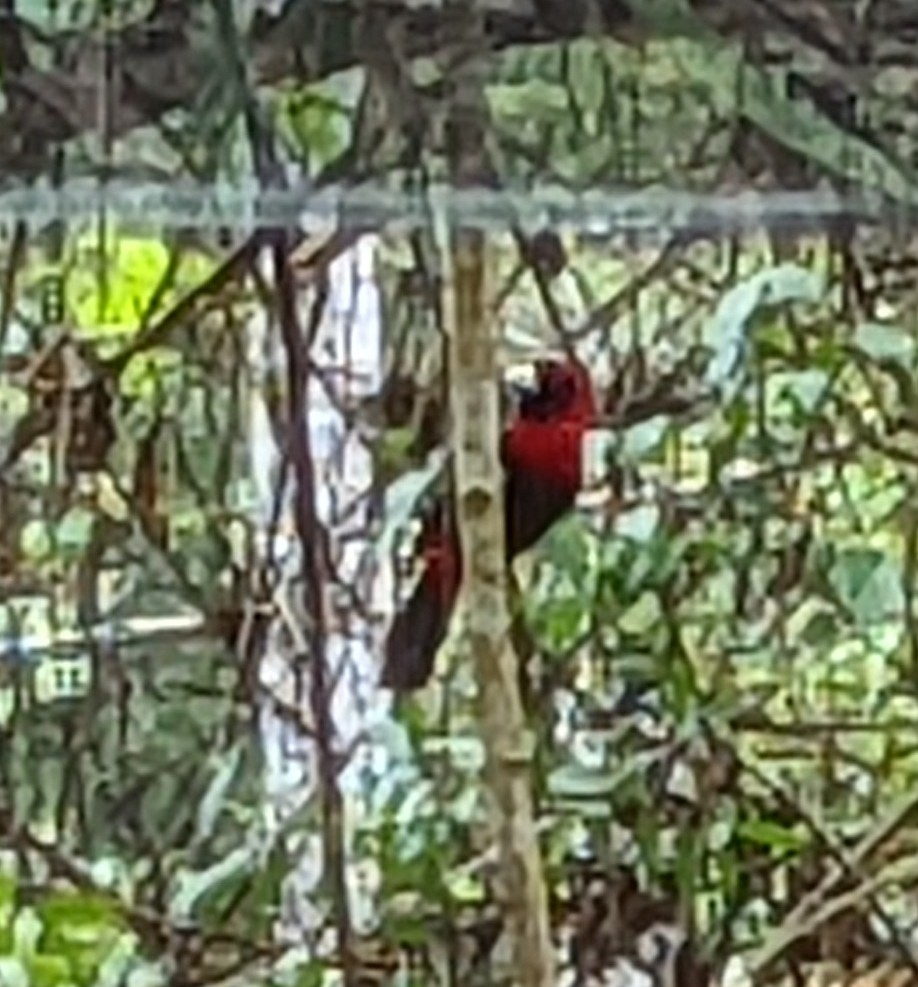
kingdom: Animalia
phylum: Chordata
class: Aves
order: Passeriformes
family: Thraupidae
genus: Ramphocelus
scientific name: Ramphocelus sanguinolentus
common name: Crimson-collared tanager
